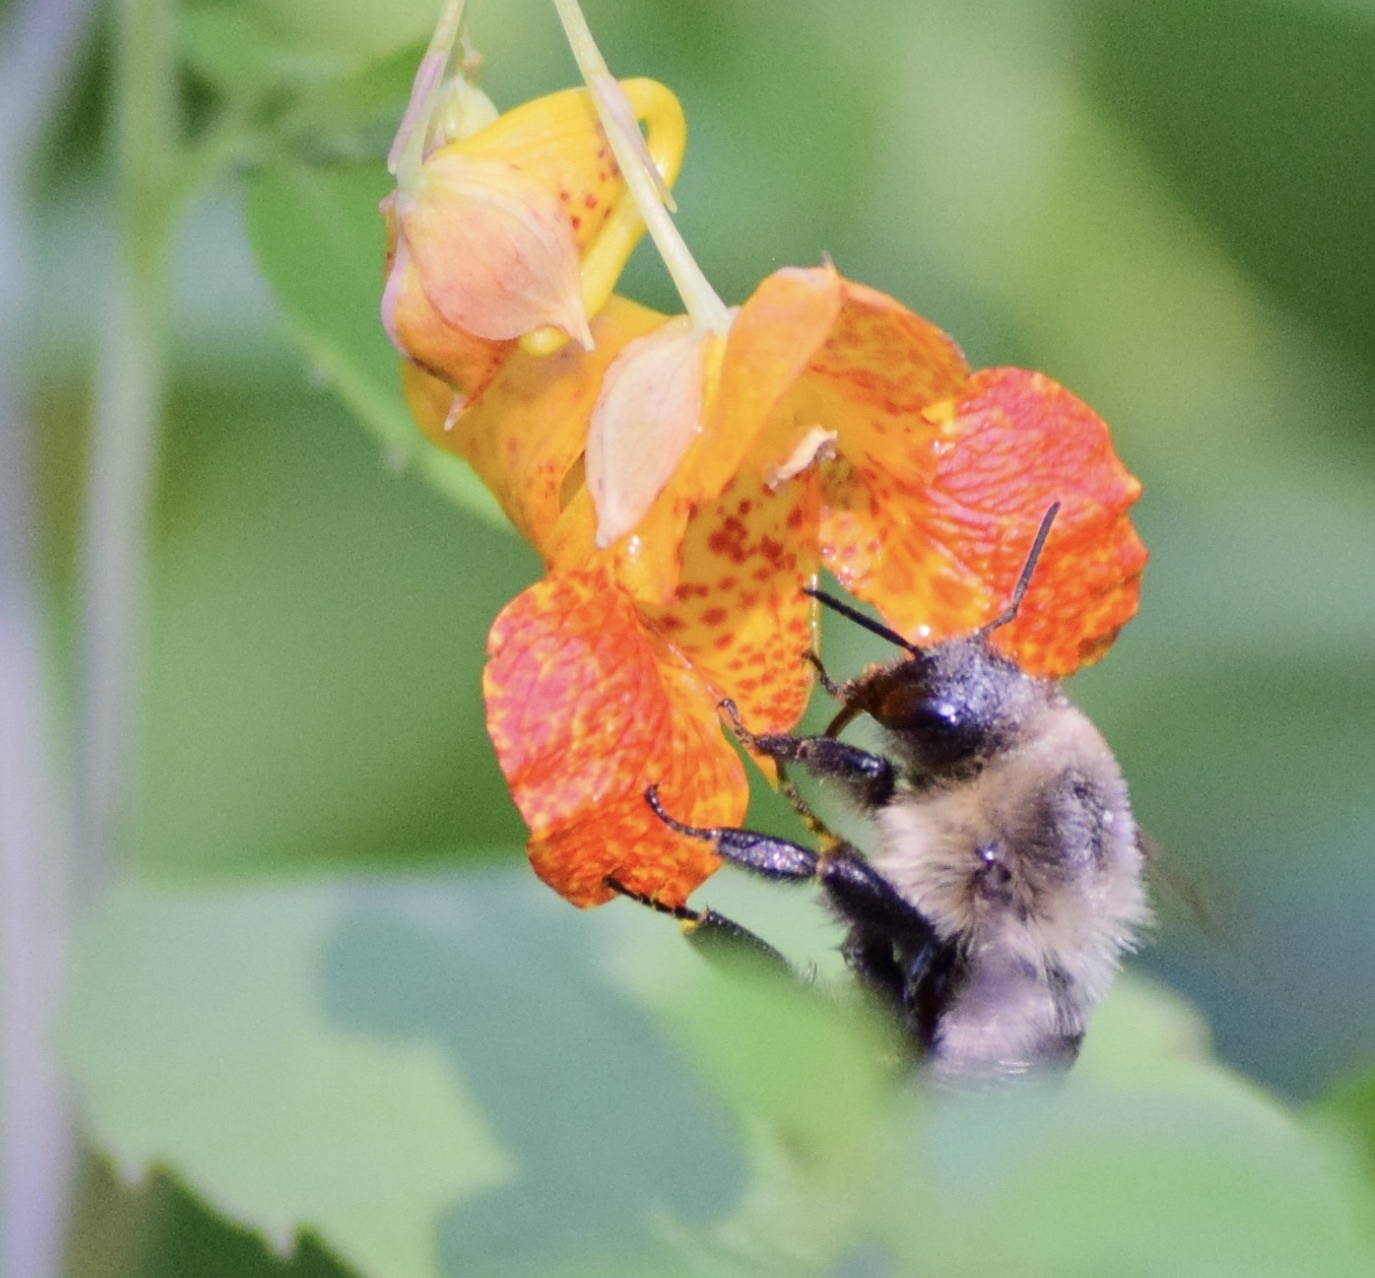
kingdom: Animalia
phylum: Arthropoda
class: Insecta
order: Hymenoptera
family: Apidae
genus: Bombus
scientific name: Bombus impatiens
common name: Common eastern bumble bee
